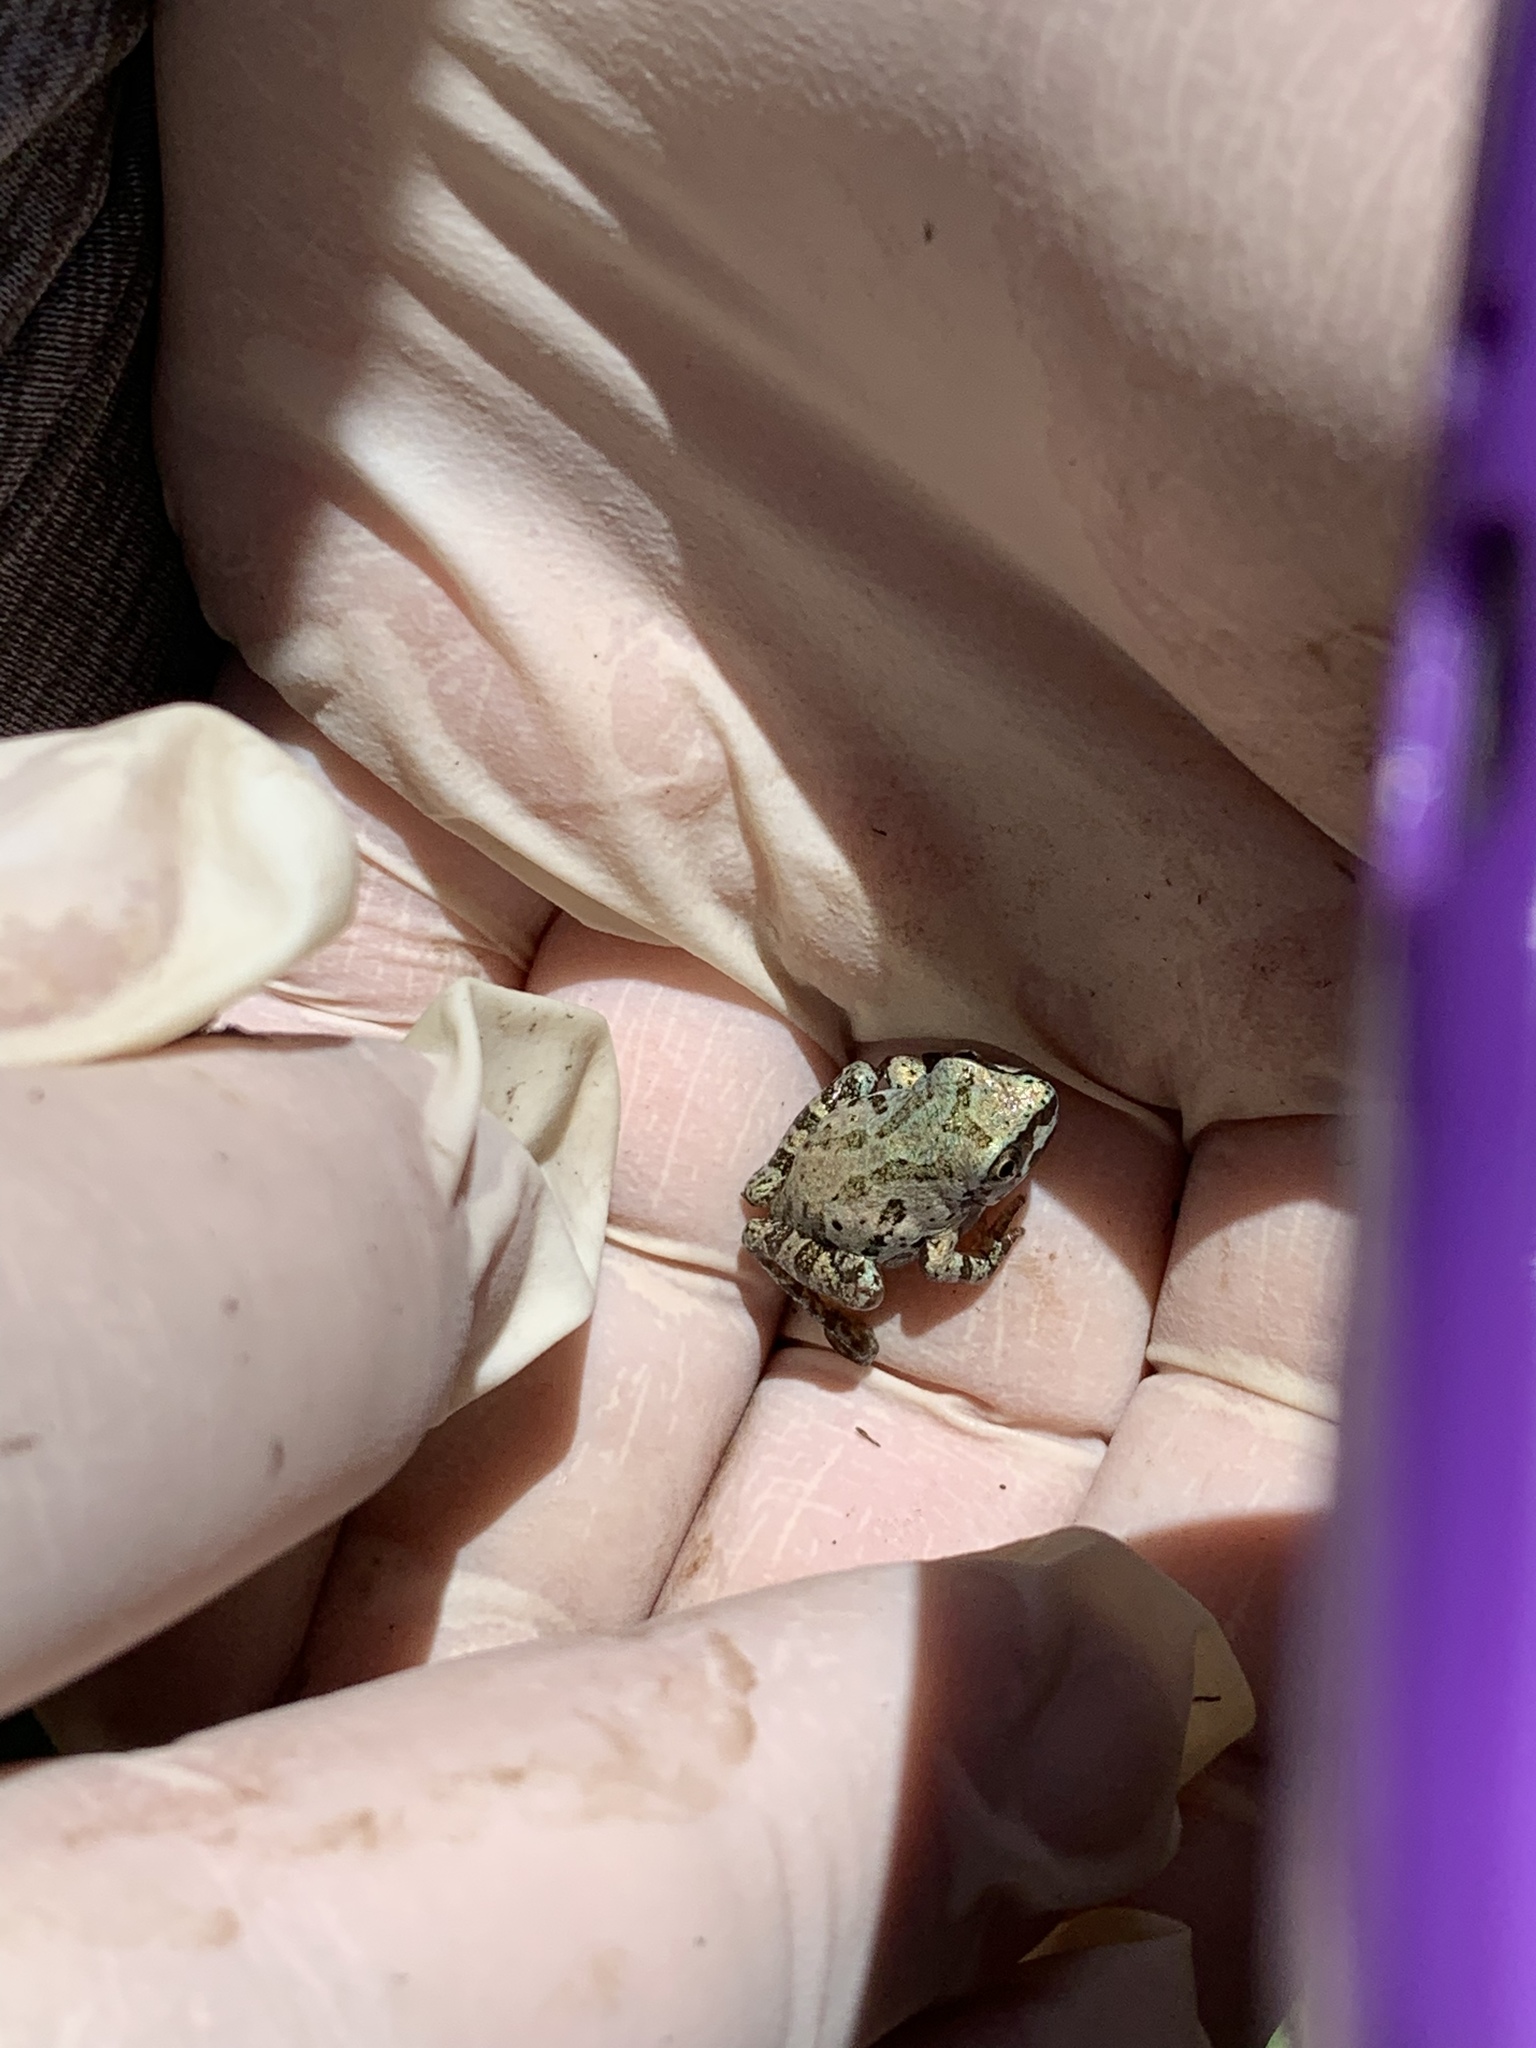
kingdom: Animalia
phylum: Chordata
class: Amphibia
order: Anura
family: Hylidae
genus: Pseudacris
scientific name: Pseudacris streckeri
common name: Strecker's chorus frog
